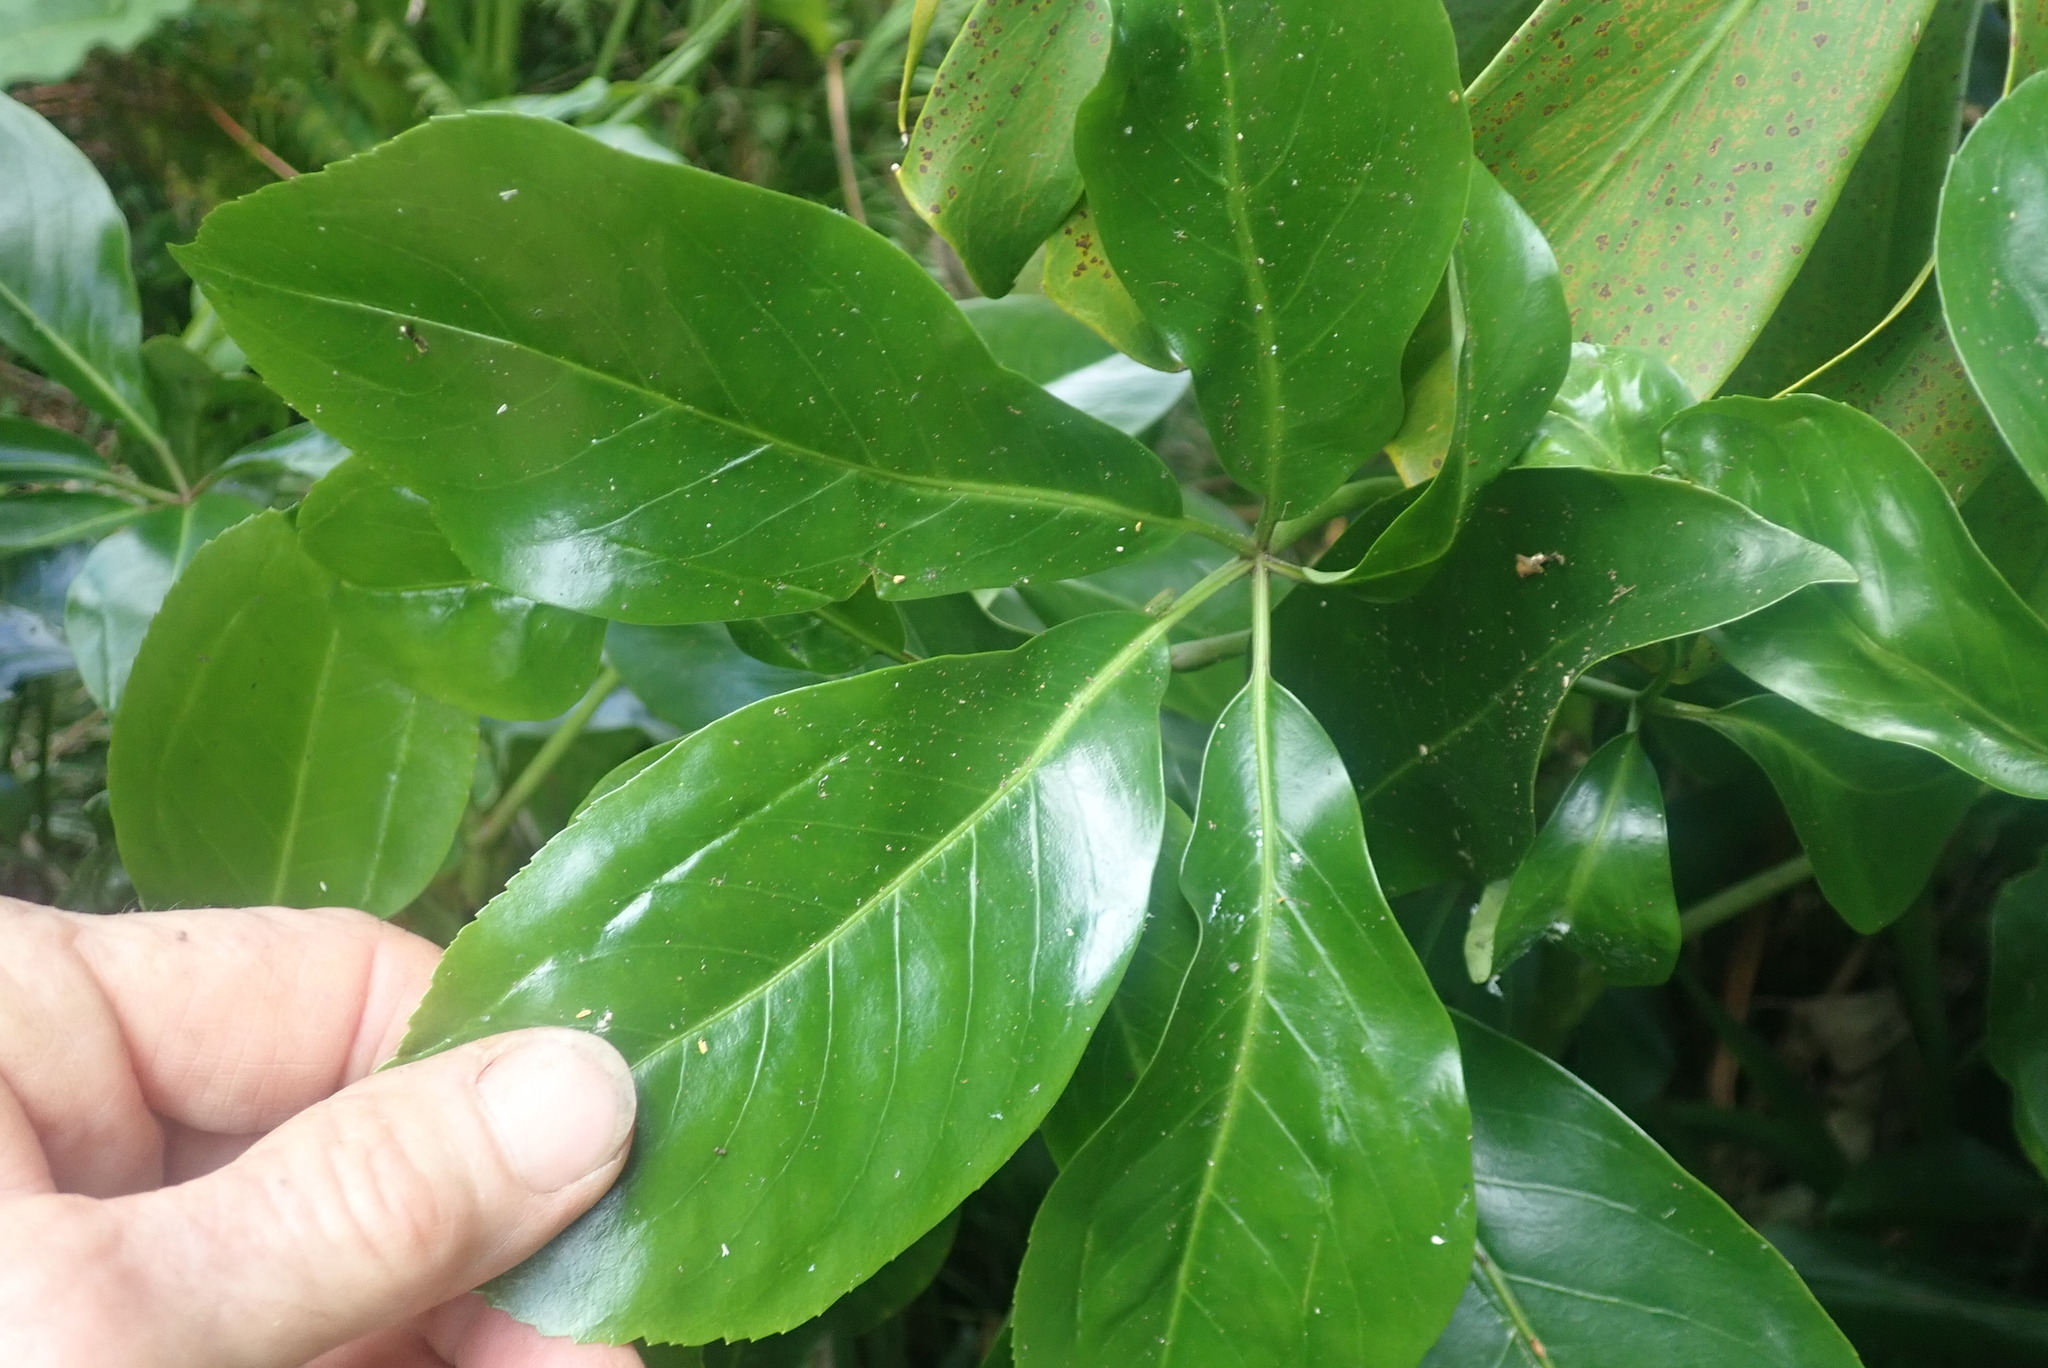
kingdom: Plantae
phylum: Tracheophyta
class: Magnoliopsida
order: Apiales
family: Araliaceae
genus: Neopanax
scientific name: Neopanax laetus
